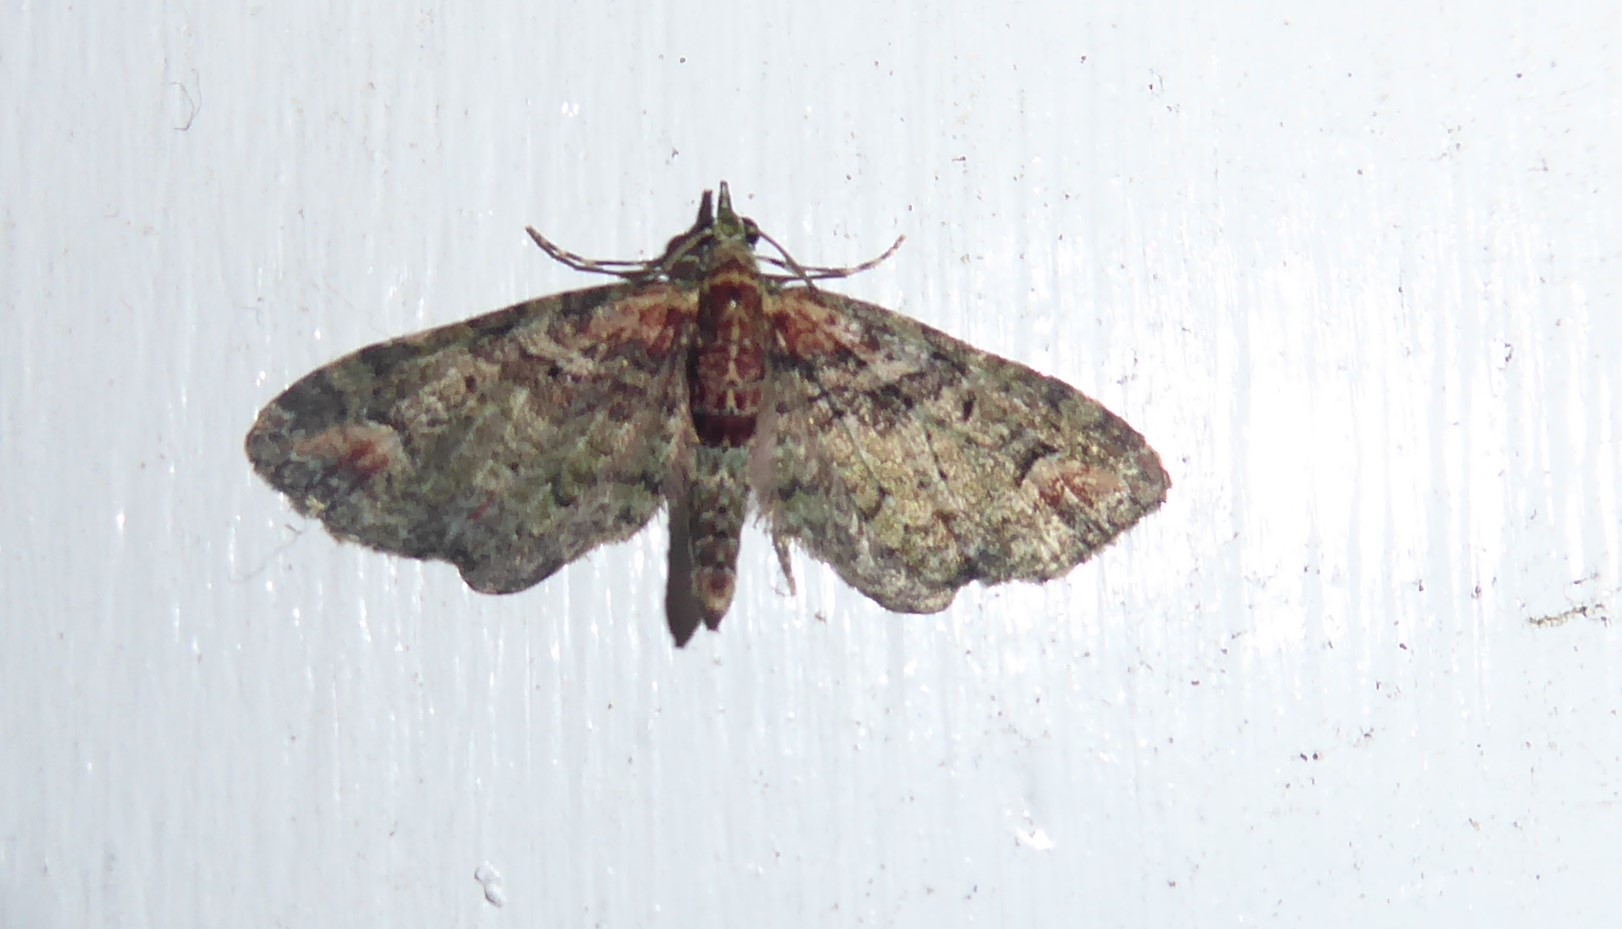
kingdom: Animalia
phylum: Arthropoda
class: Insecta
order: Lepidoptera
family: Geometridae
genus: Idaea
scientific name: Idaea mutanda
